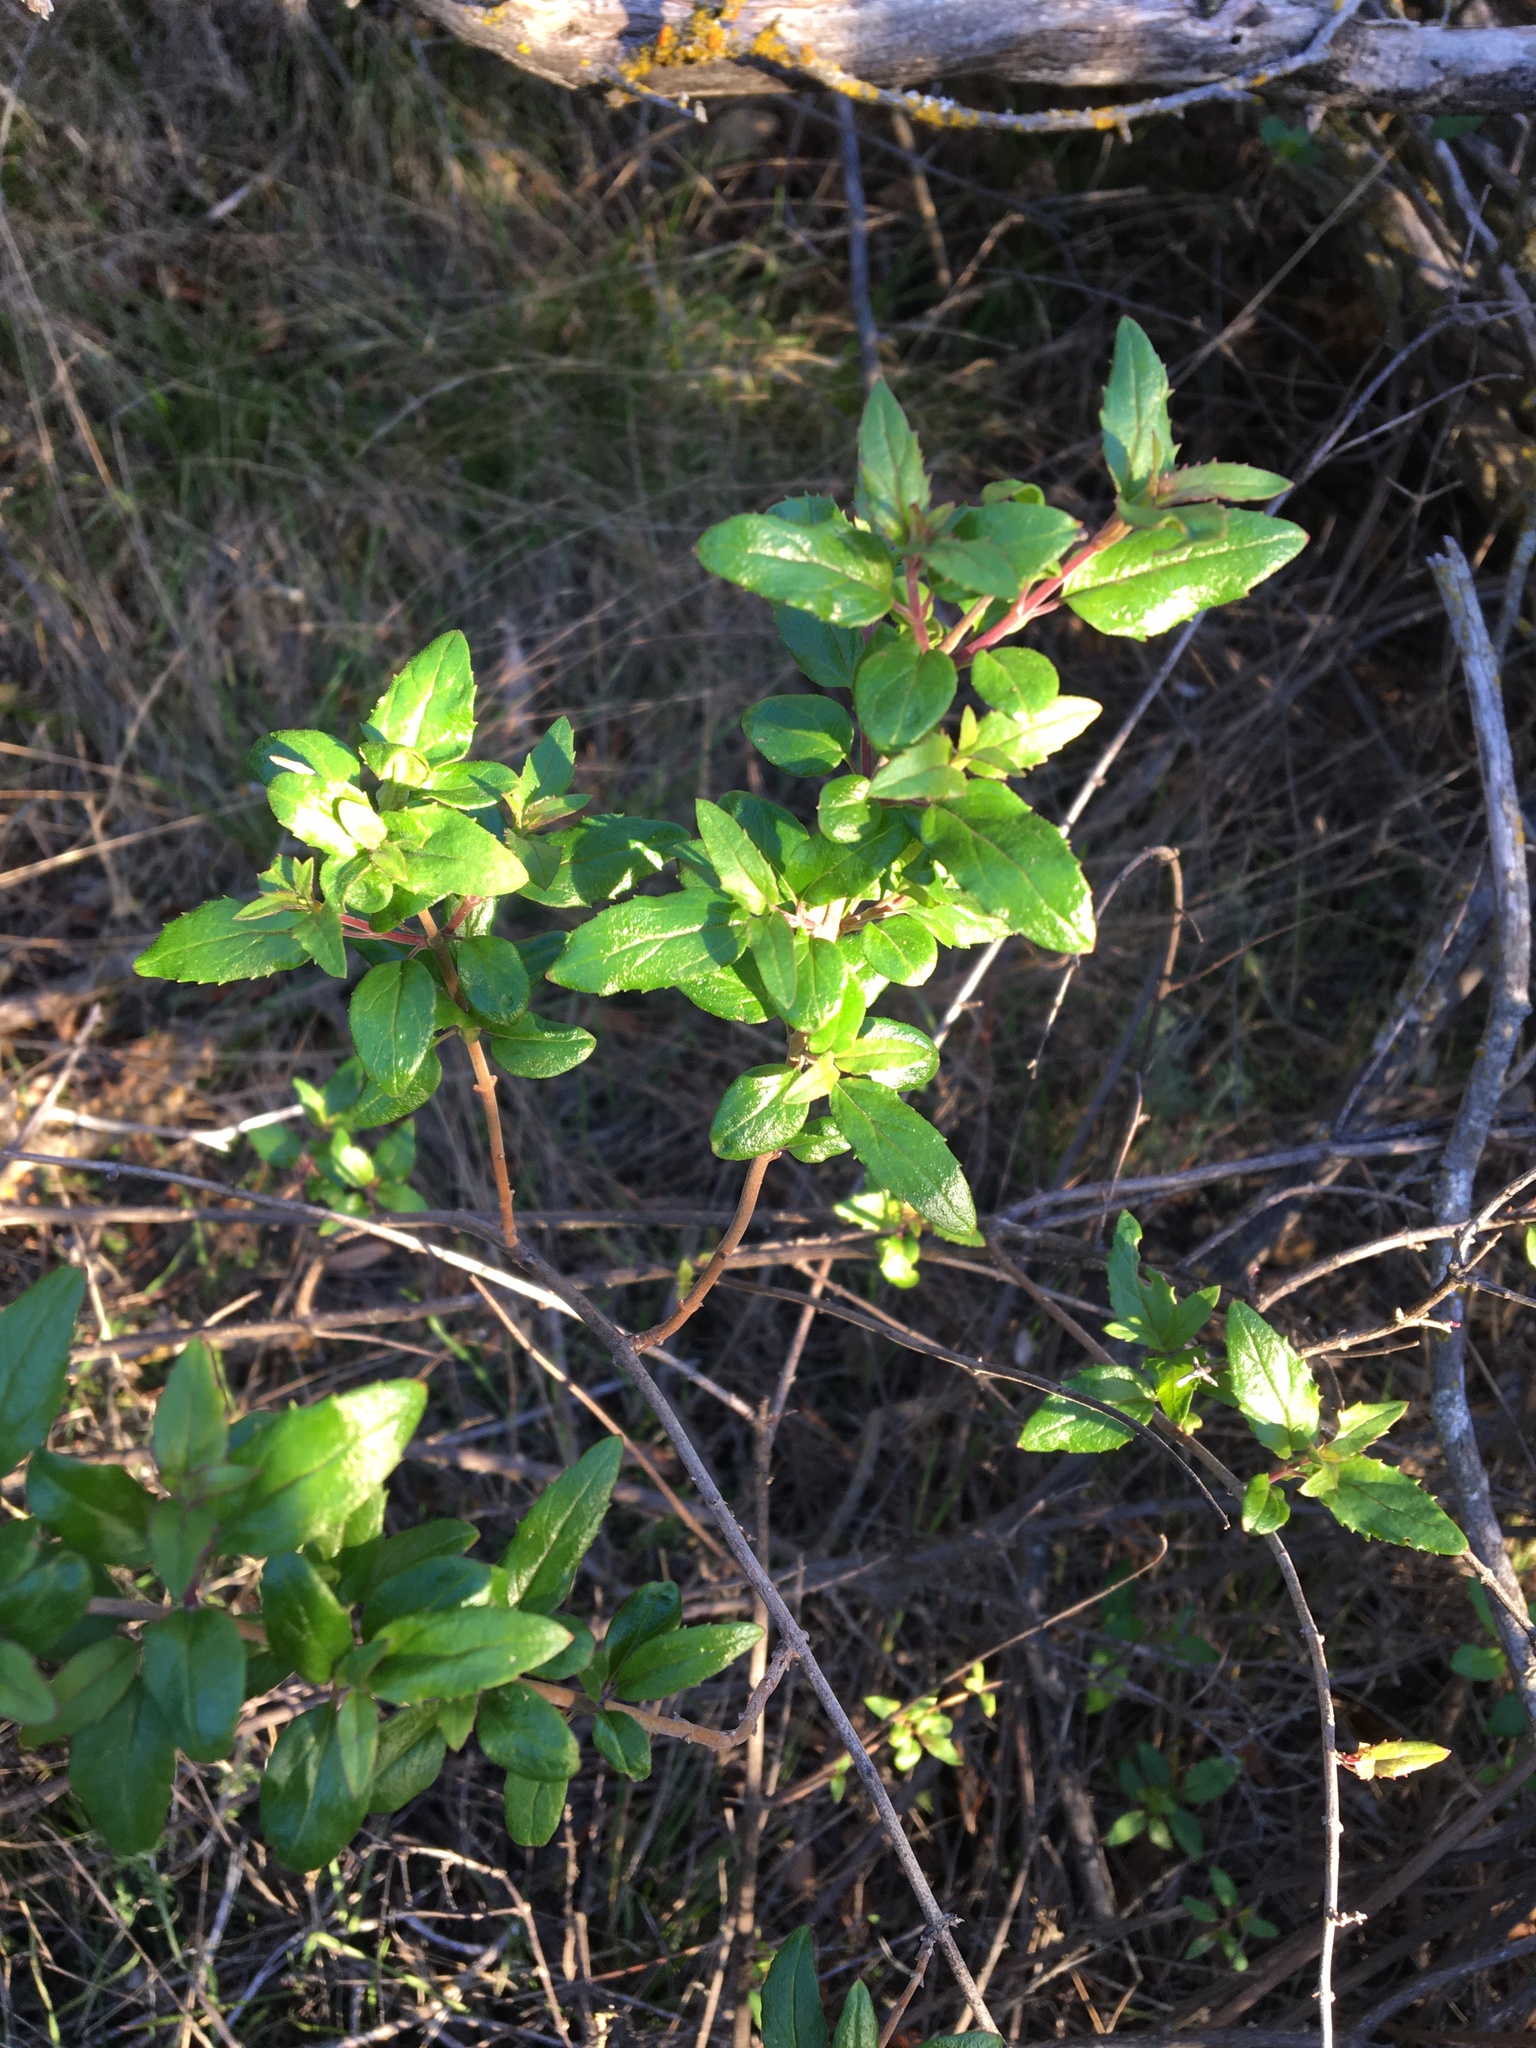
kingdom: Plantae
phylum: Tracheophyta
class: Magnoliopsida
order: Lamiales
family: Plantaginaceae
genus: Keckiella
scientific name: Keckiella cordifolia
